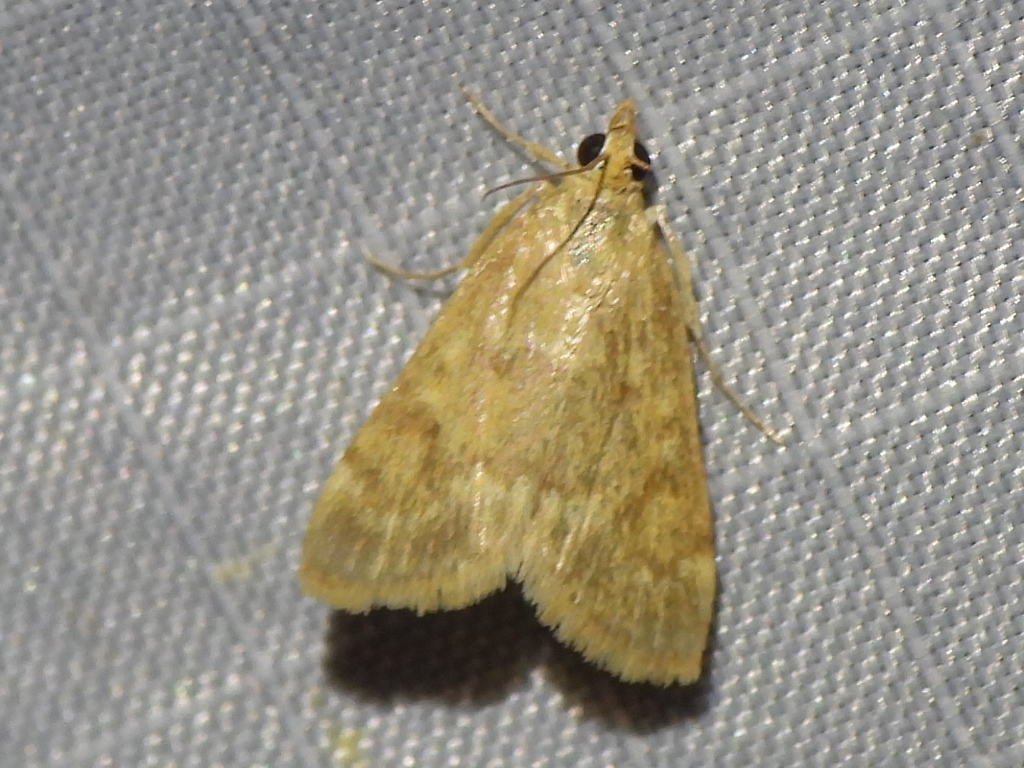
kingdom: Animalia
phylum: Arthropoda
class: Insecta
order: Lepidoptera
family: Crambidae
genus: Achyra
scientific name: Achyra rantalis
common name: Garden webworm
